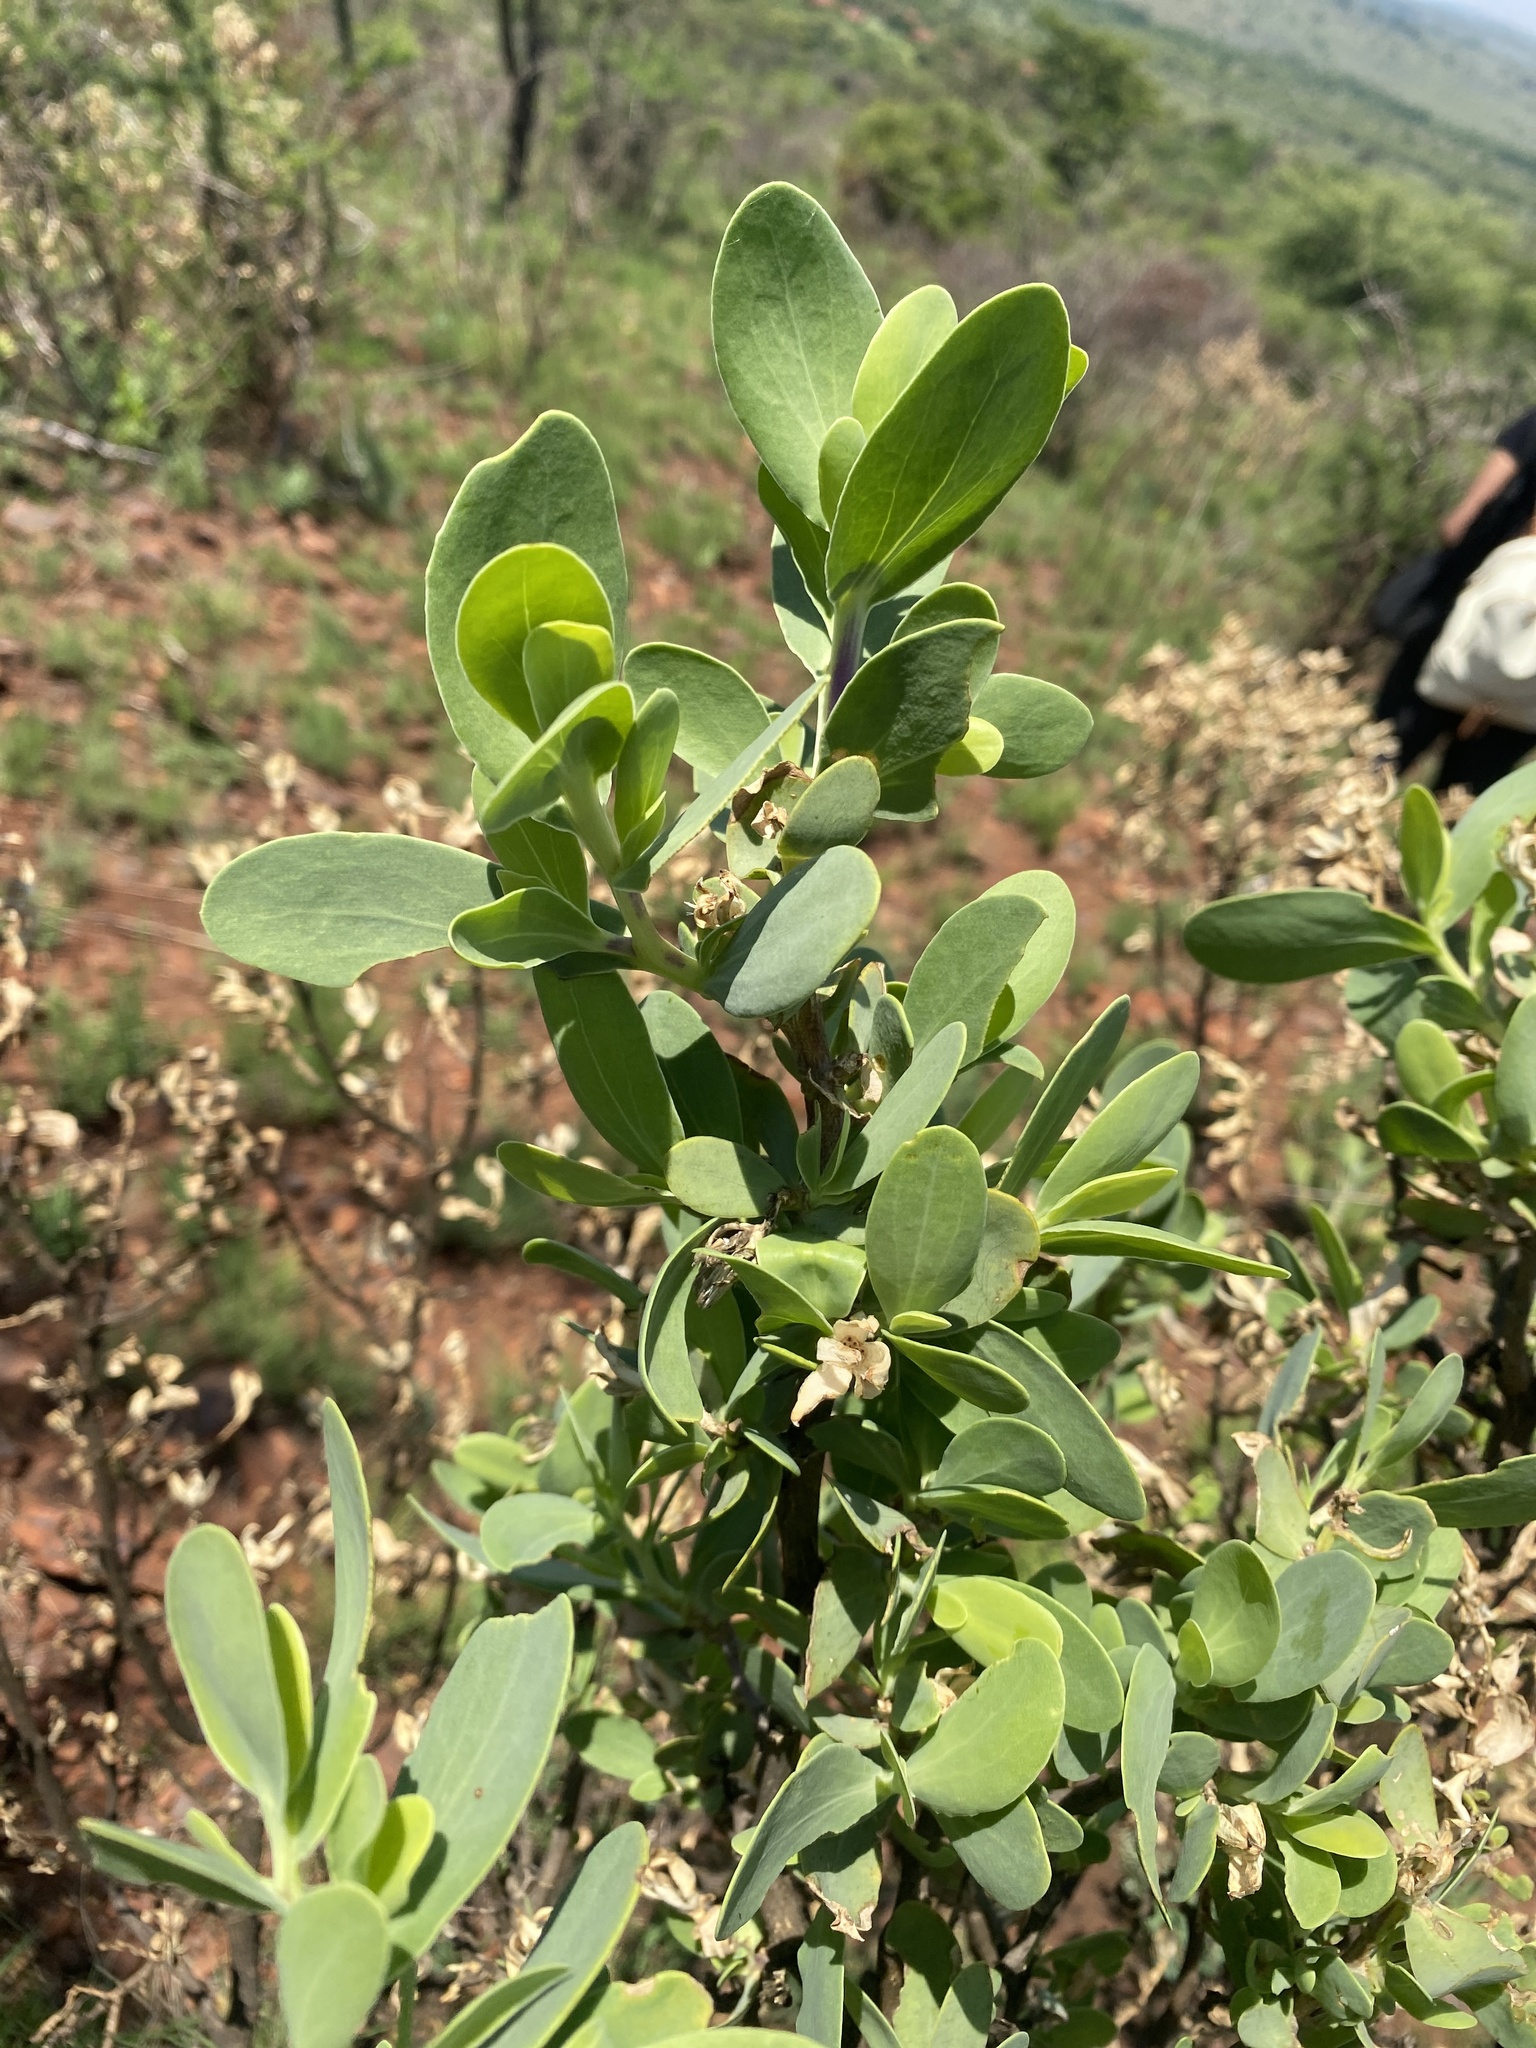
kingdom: Plantae
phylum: Tracheophyta
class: Magnoliopsida
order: Asterales
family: Asteraceae
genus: Lopholaena
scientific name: Lopholaena coriifolia
